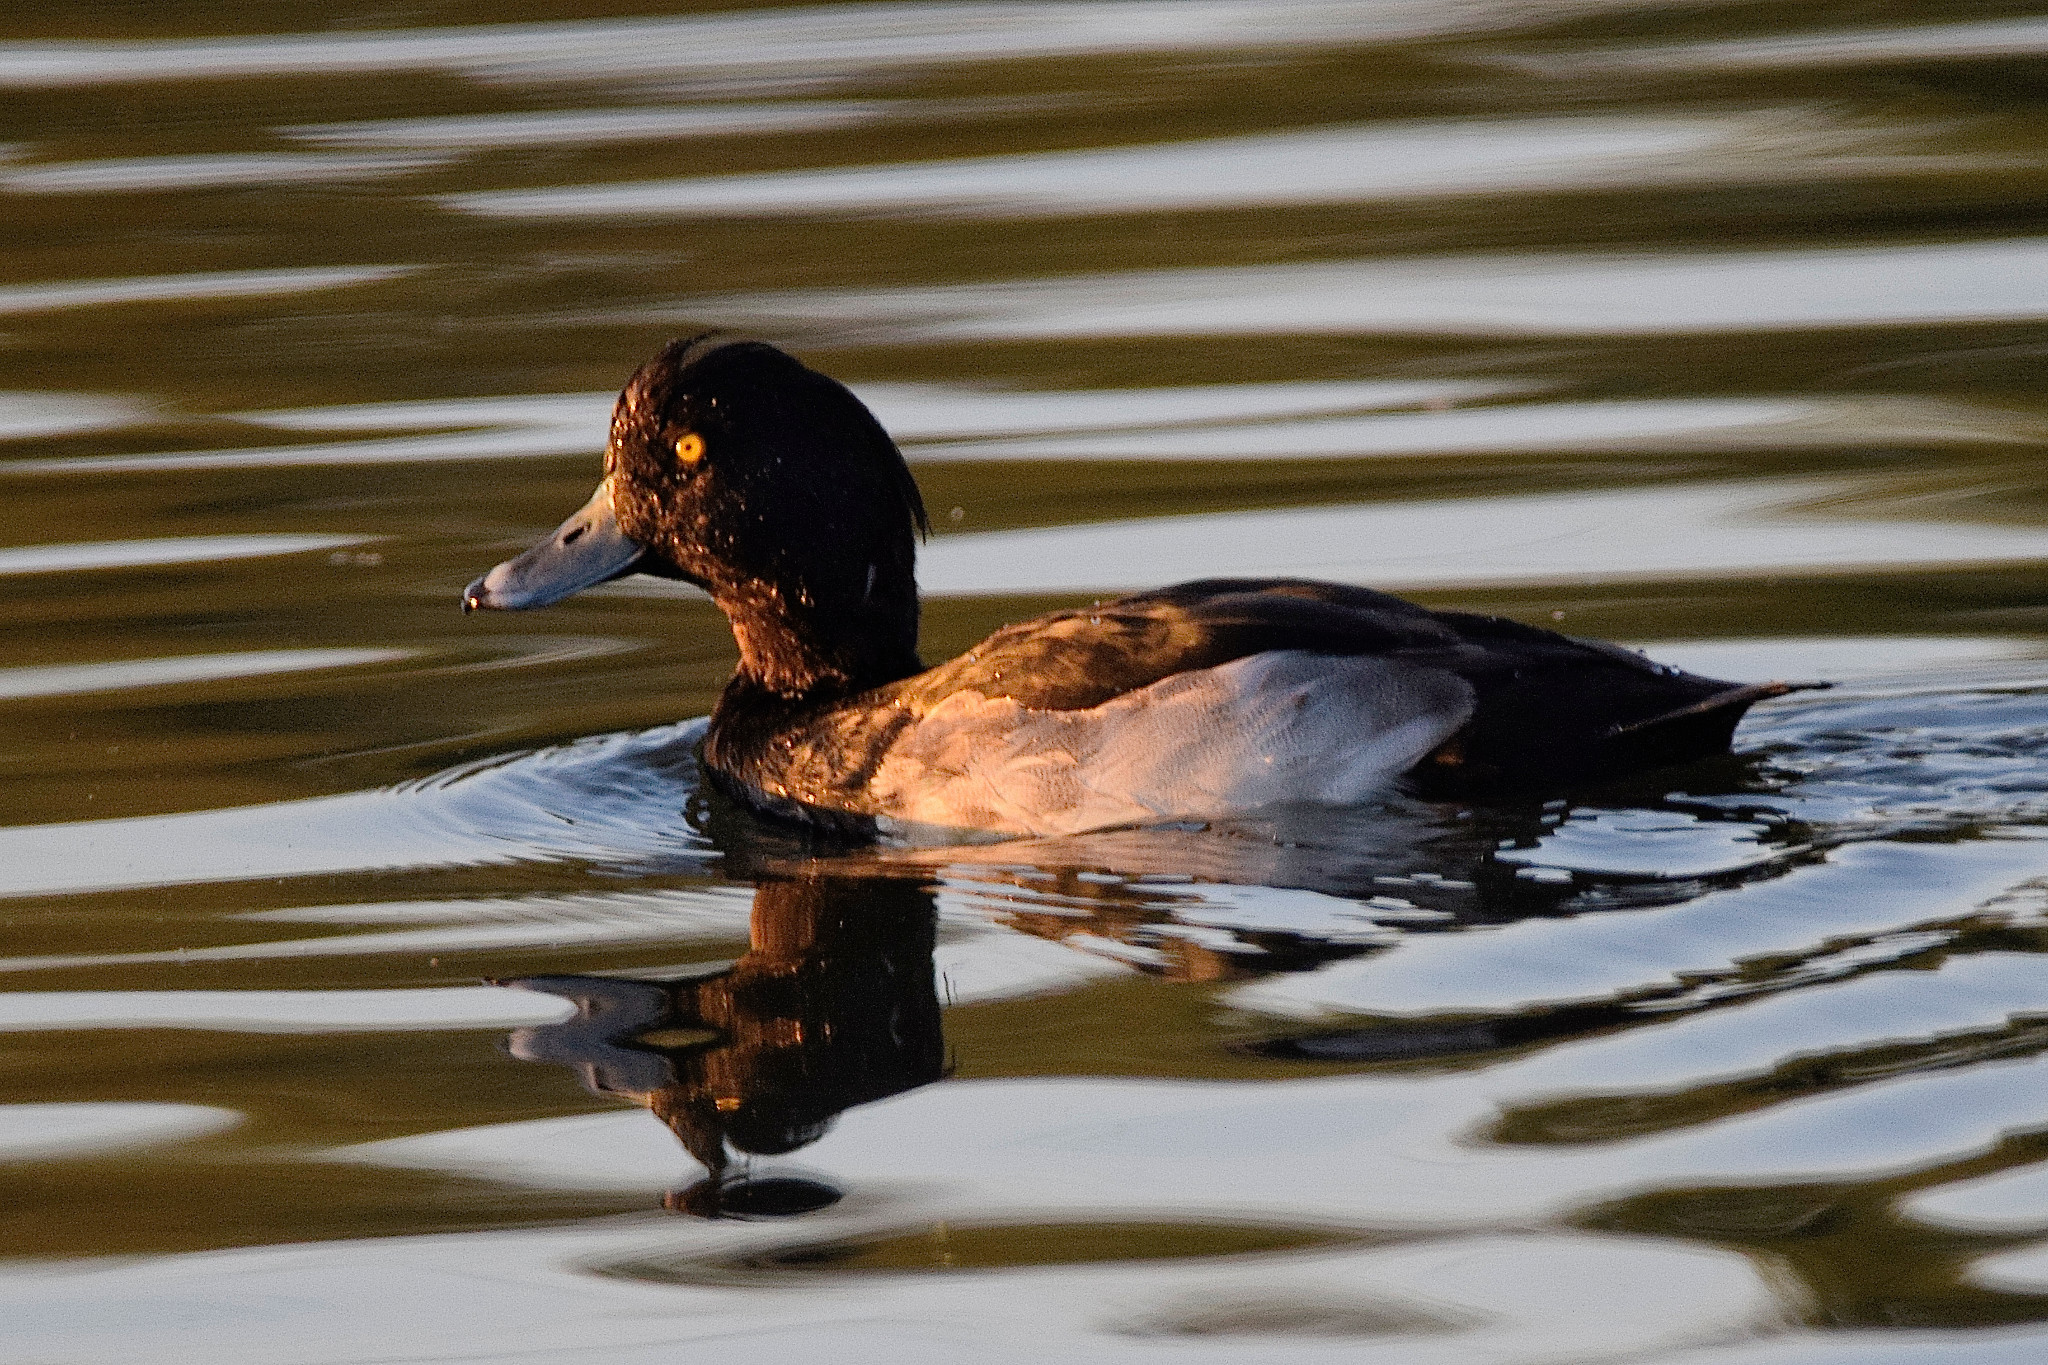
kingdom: Animalia
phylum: Chordata
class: Aves
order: Anseriformes
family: Anatidae
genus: Aythya
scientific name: Aythya fuligula
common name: Tufted duck
